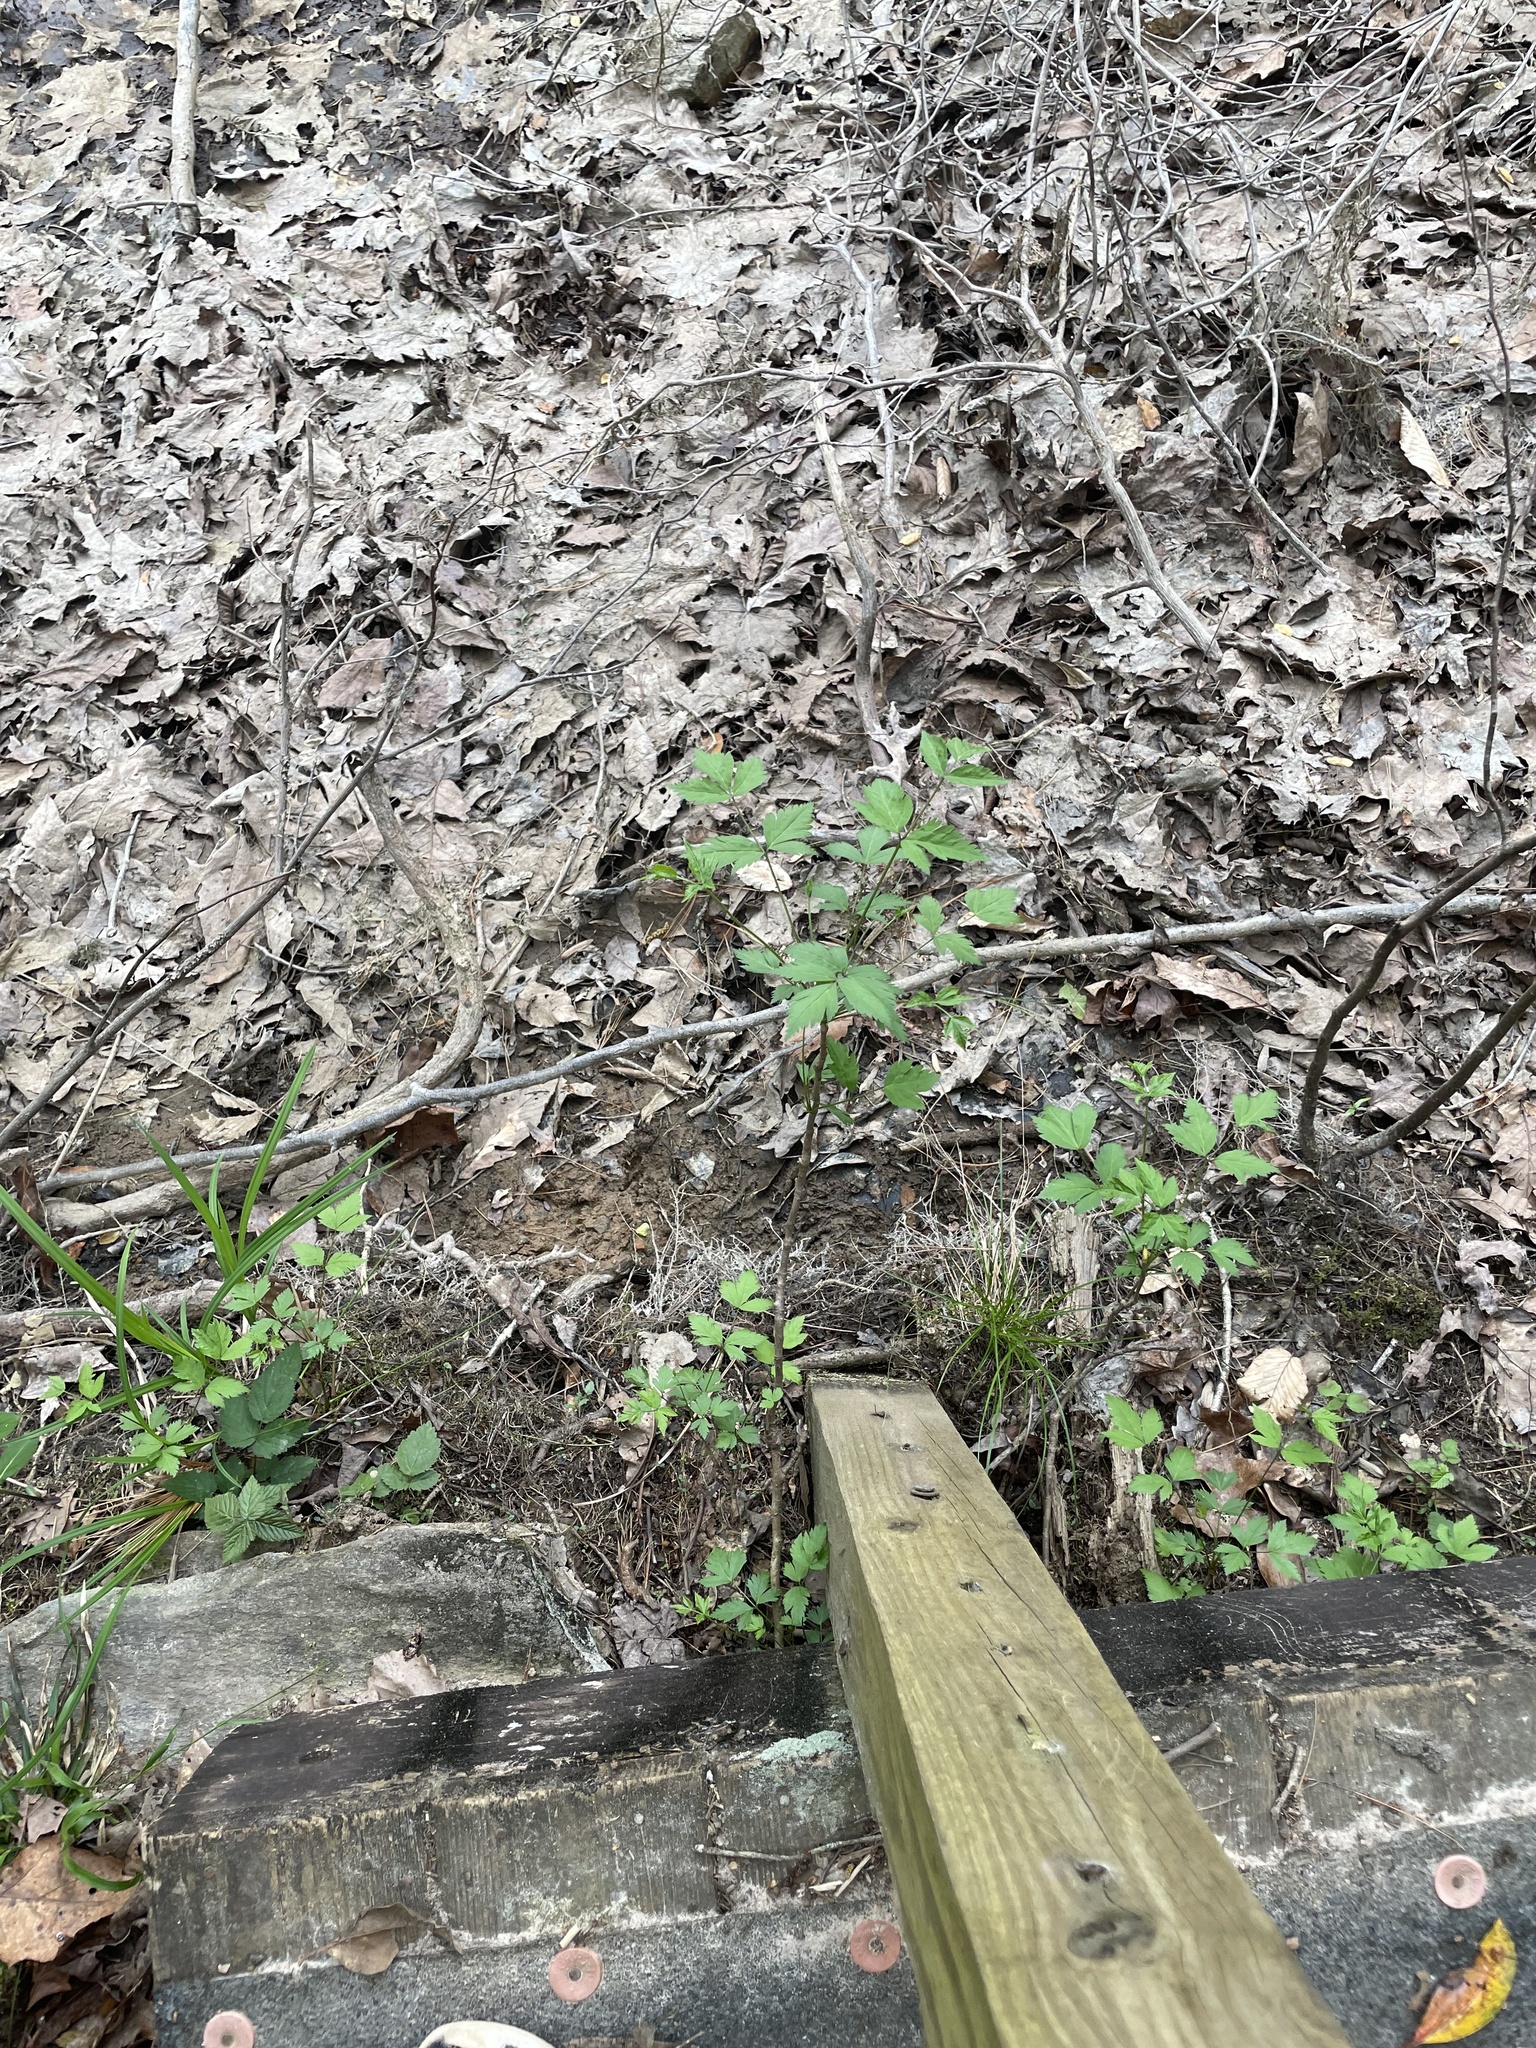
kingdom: Plantae
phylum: Tracheophyta
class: Magnoliopsida
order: Ranunculales
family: Ranunculaceae
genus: Xanthorhiza
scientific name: Xanthorhiza simplicissima
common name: Yellowroot
